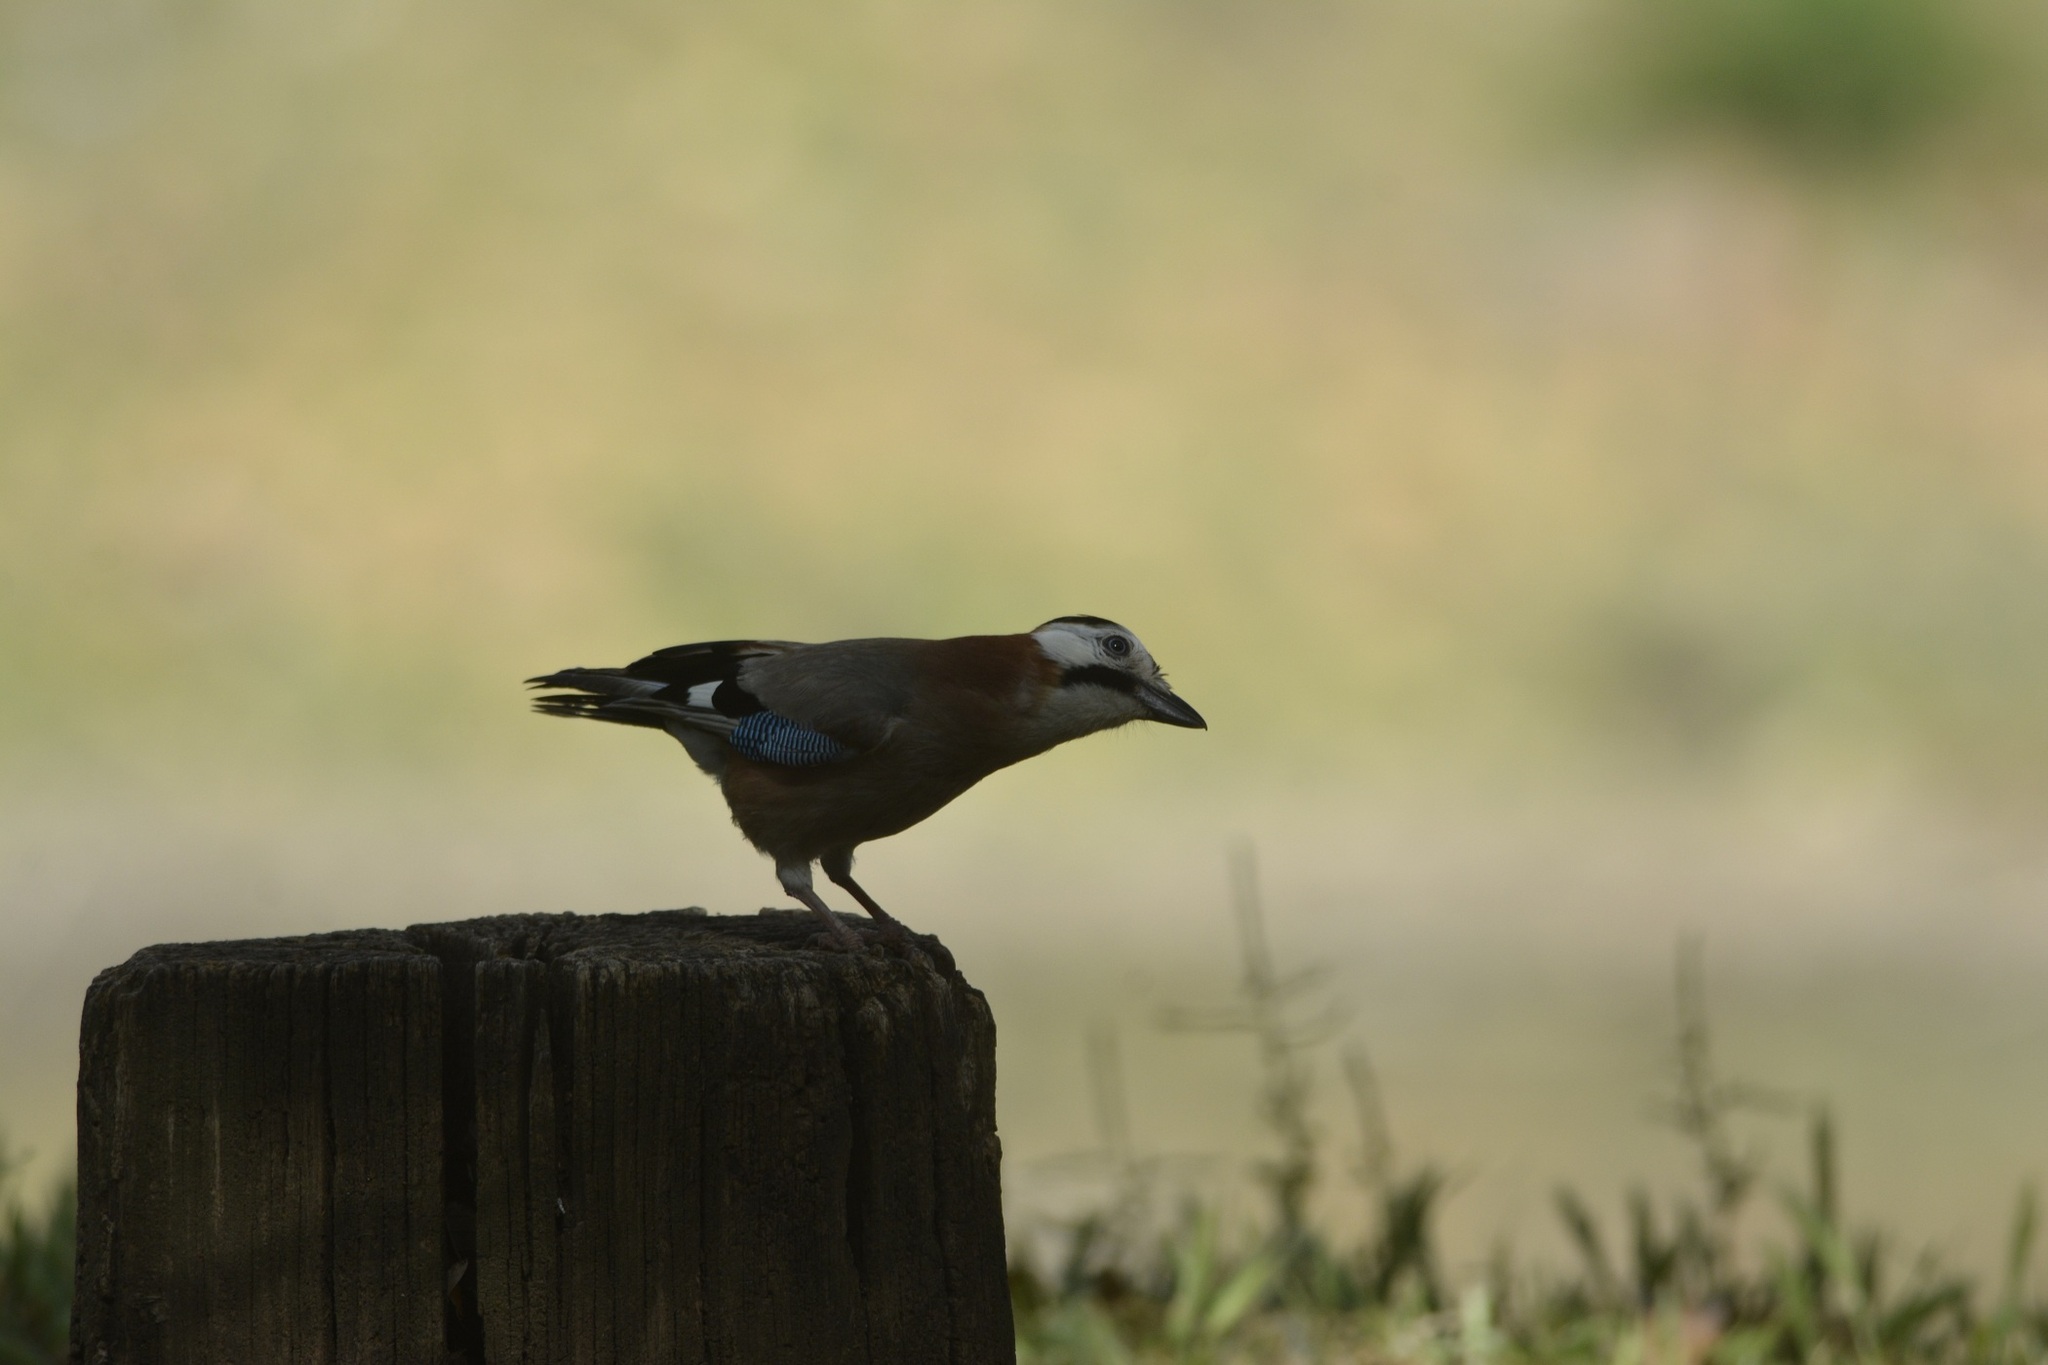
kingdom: Animalia
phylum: Chordata
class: Aves
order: Passeriformes
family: Corvidae
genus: Garrulus
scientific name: Garrulus glandarius
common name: Eurasian jay
